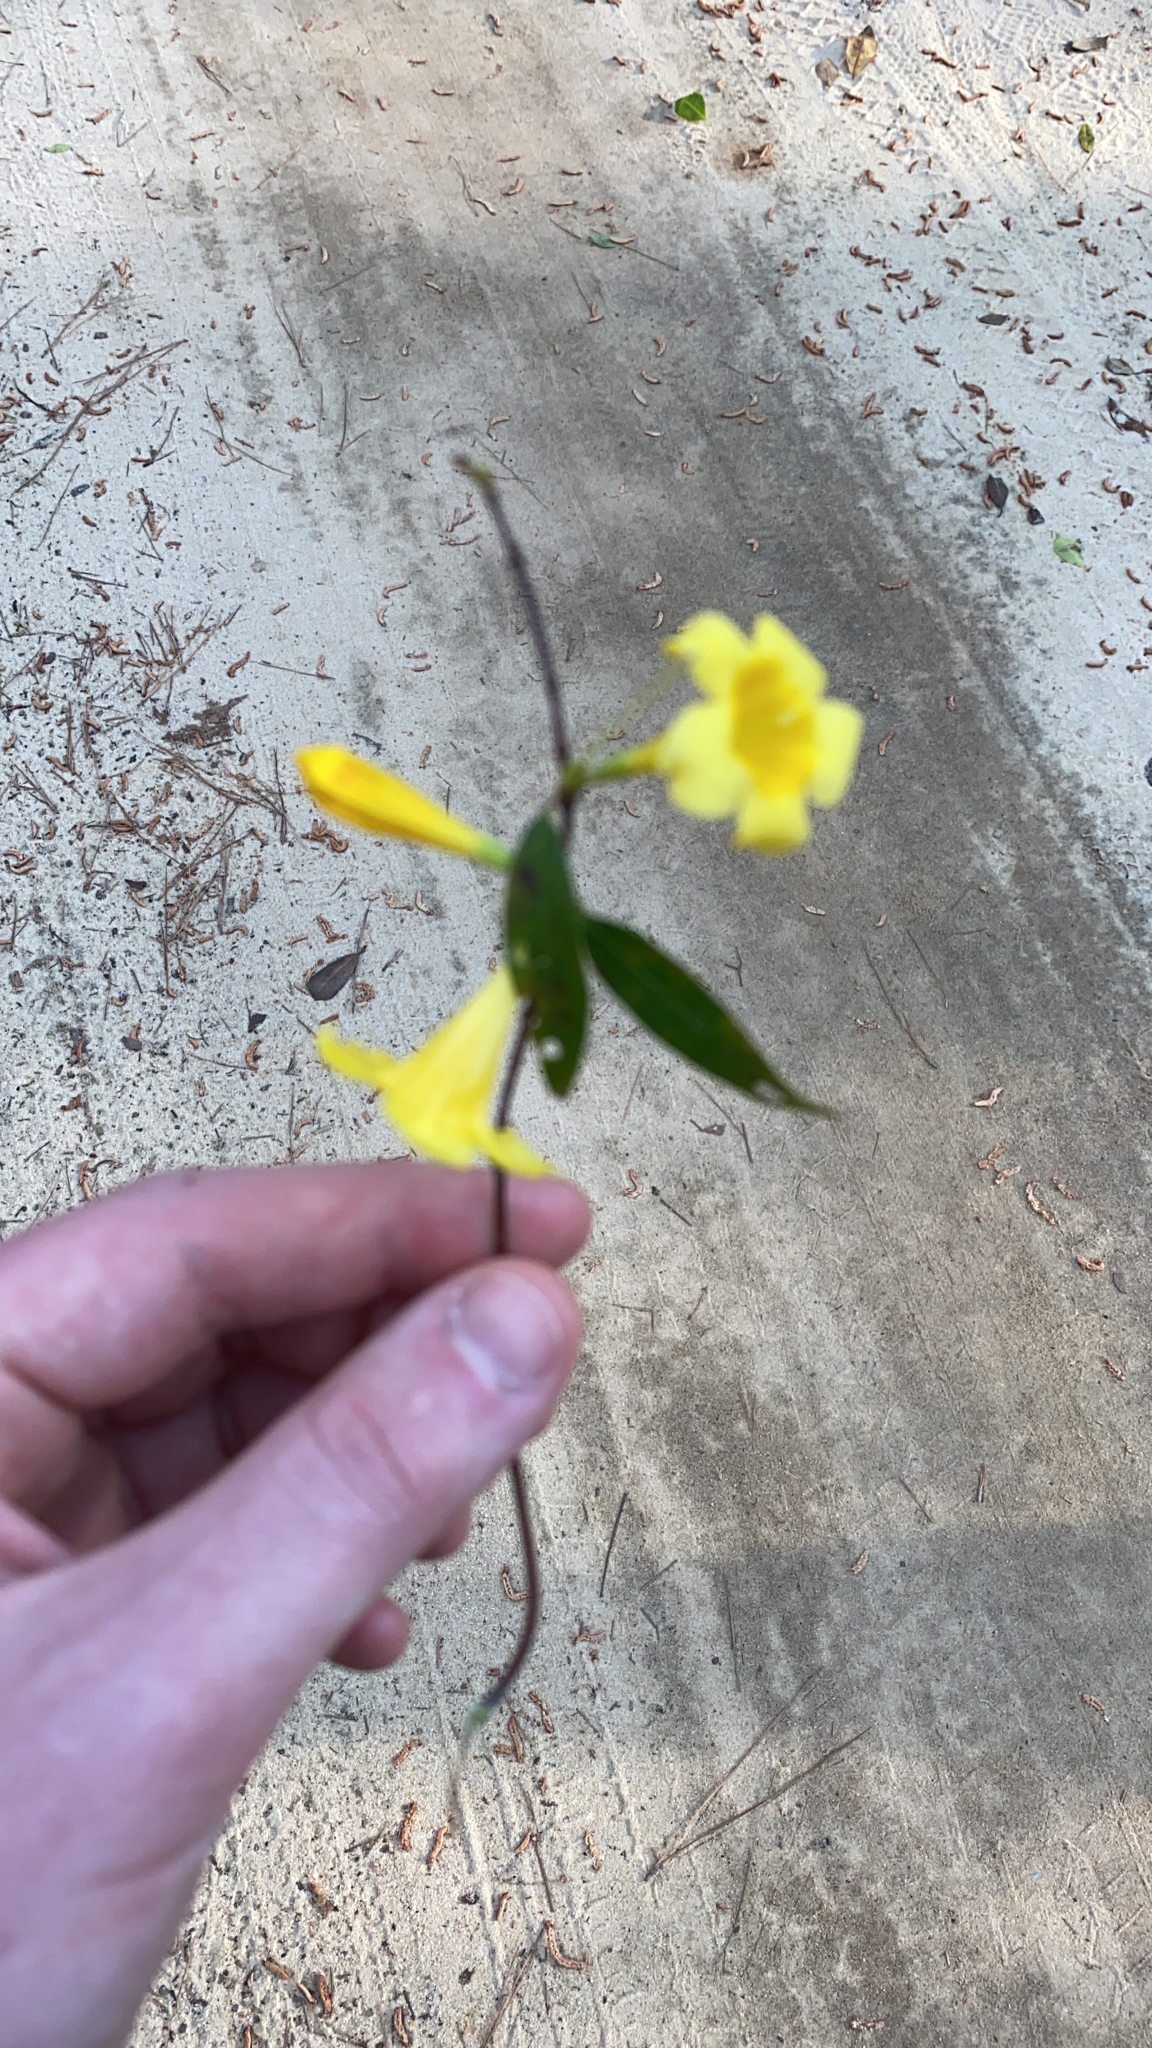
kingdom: Plantae
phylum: Tracheophyta
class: Magnoliopsida
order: Gentianales
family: Gelsemiaceae
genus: Gelsemium
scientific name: Gelsemium sempervirens
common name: Carolina-jasmine
